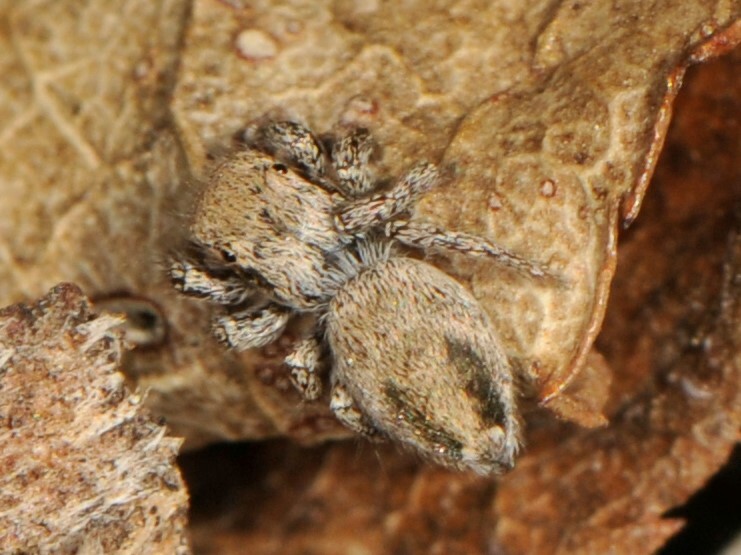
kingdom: Animalia
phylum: Arthropoda
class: Arachnida
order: Araneae
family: Salticidae
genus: Habronattus
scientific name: Habronattus
